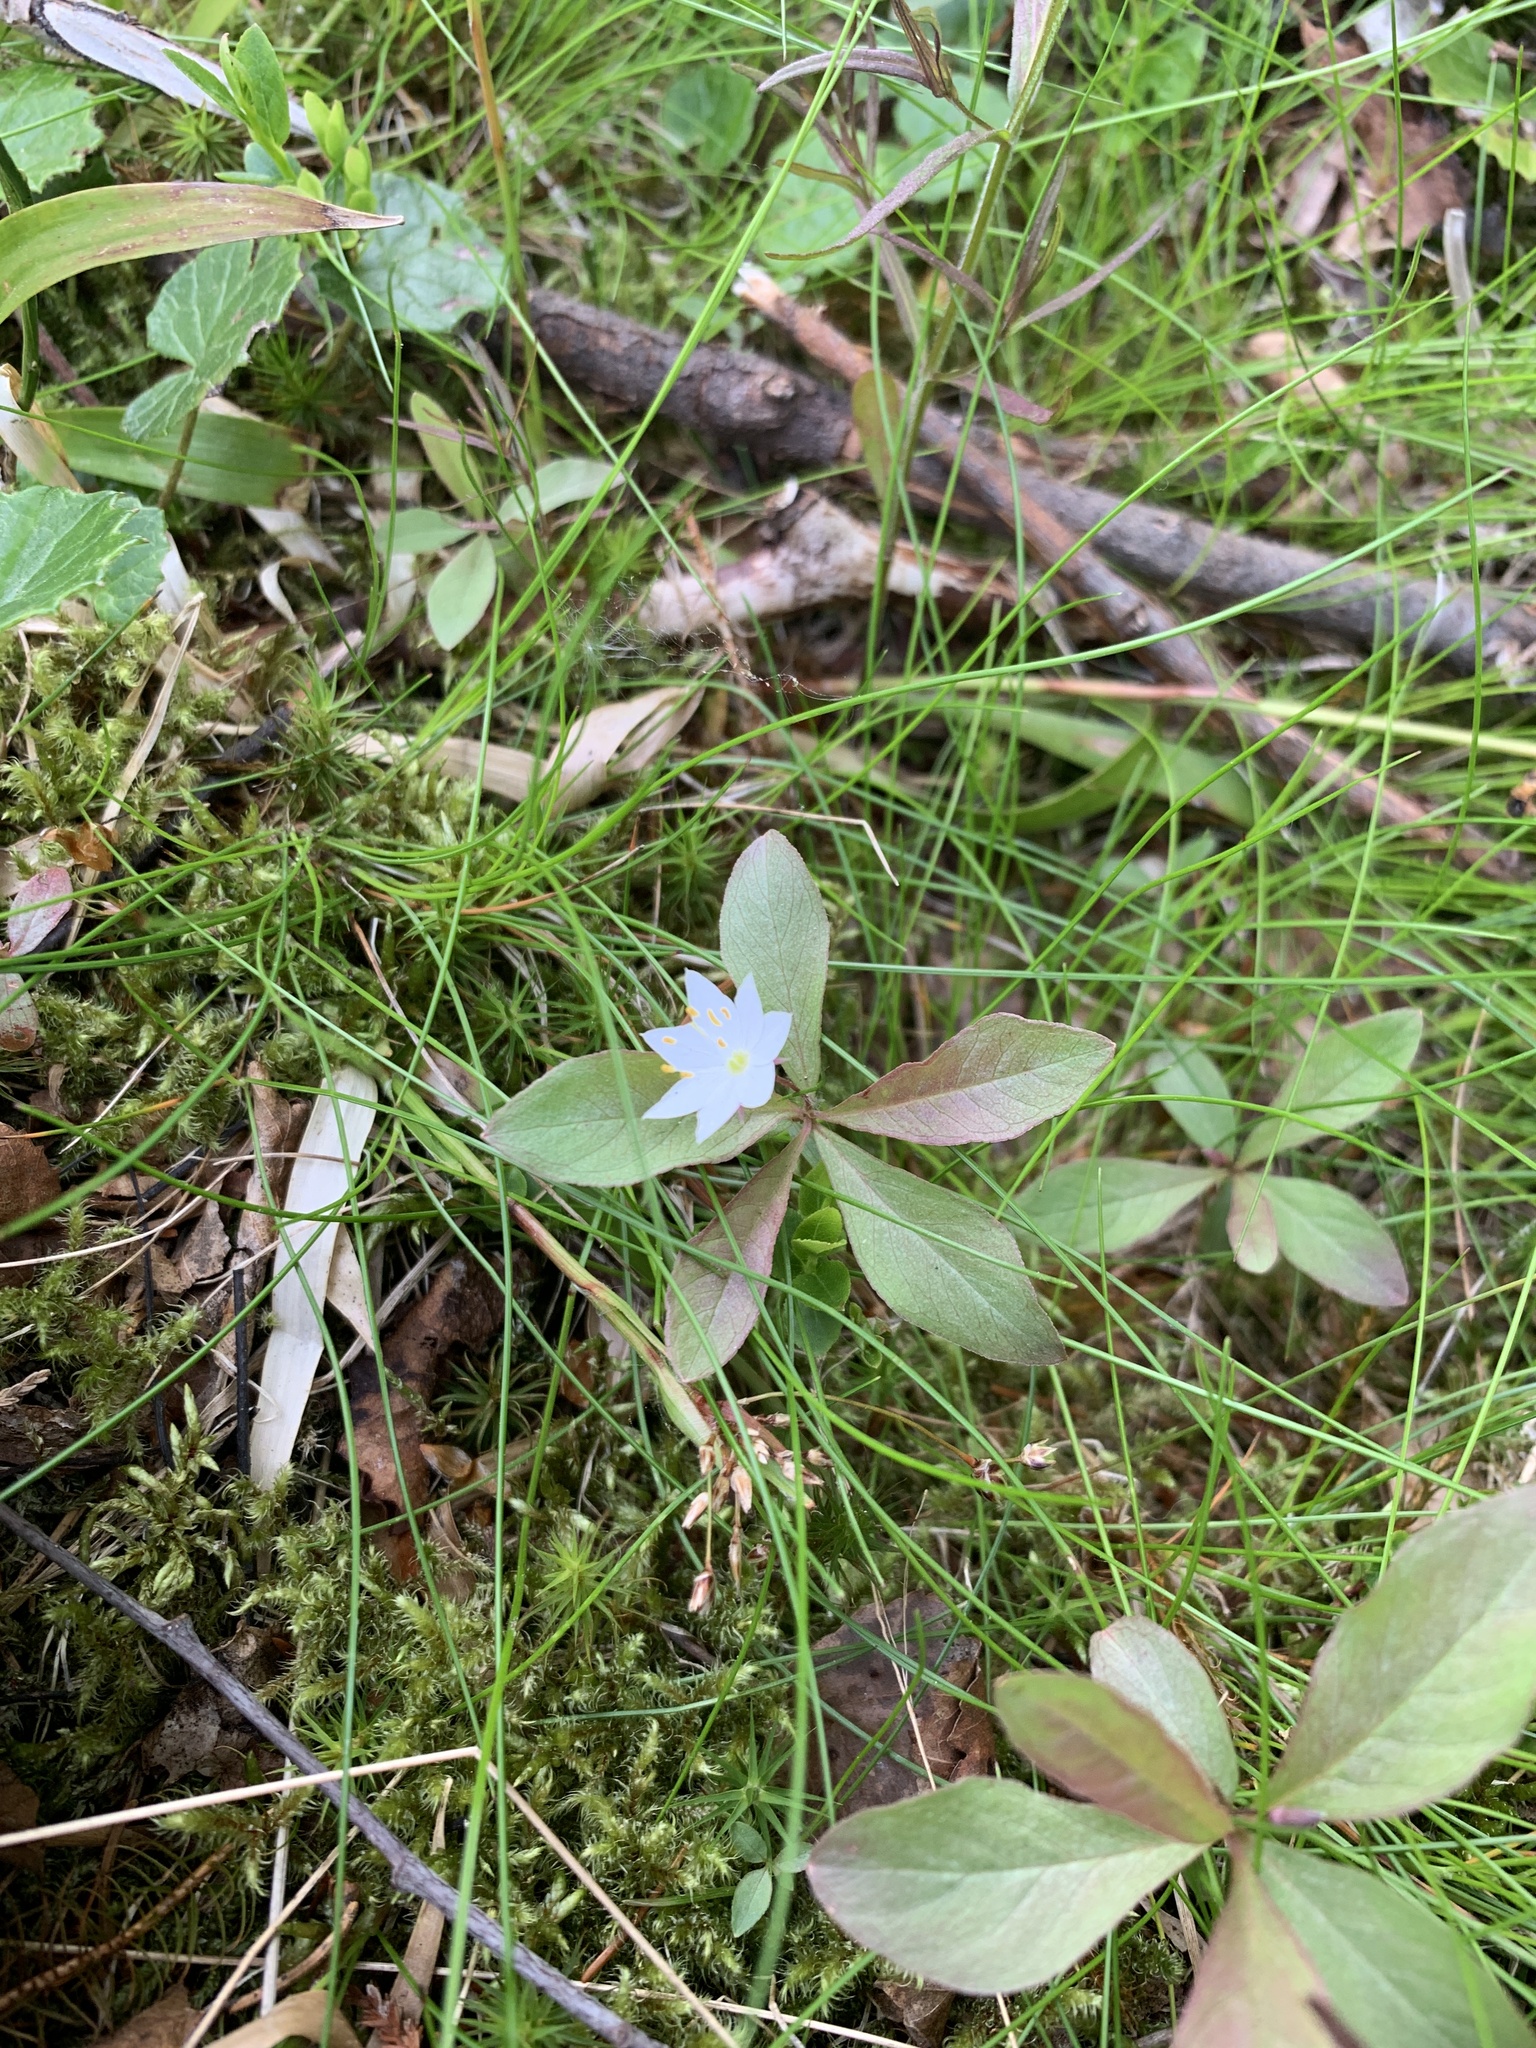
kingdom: Plantae
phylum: Tracheophyta
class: Magnoliopsida
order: Ericales
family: Primulaceae
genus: Lysimachia
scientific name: Lysimachia europaea
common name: Arctic starflower
